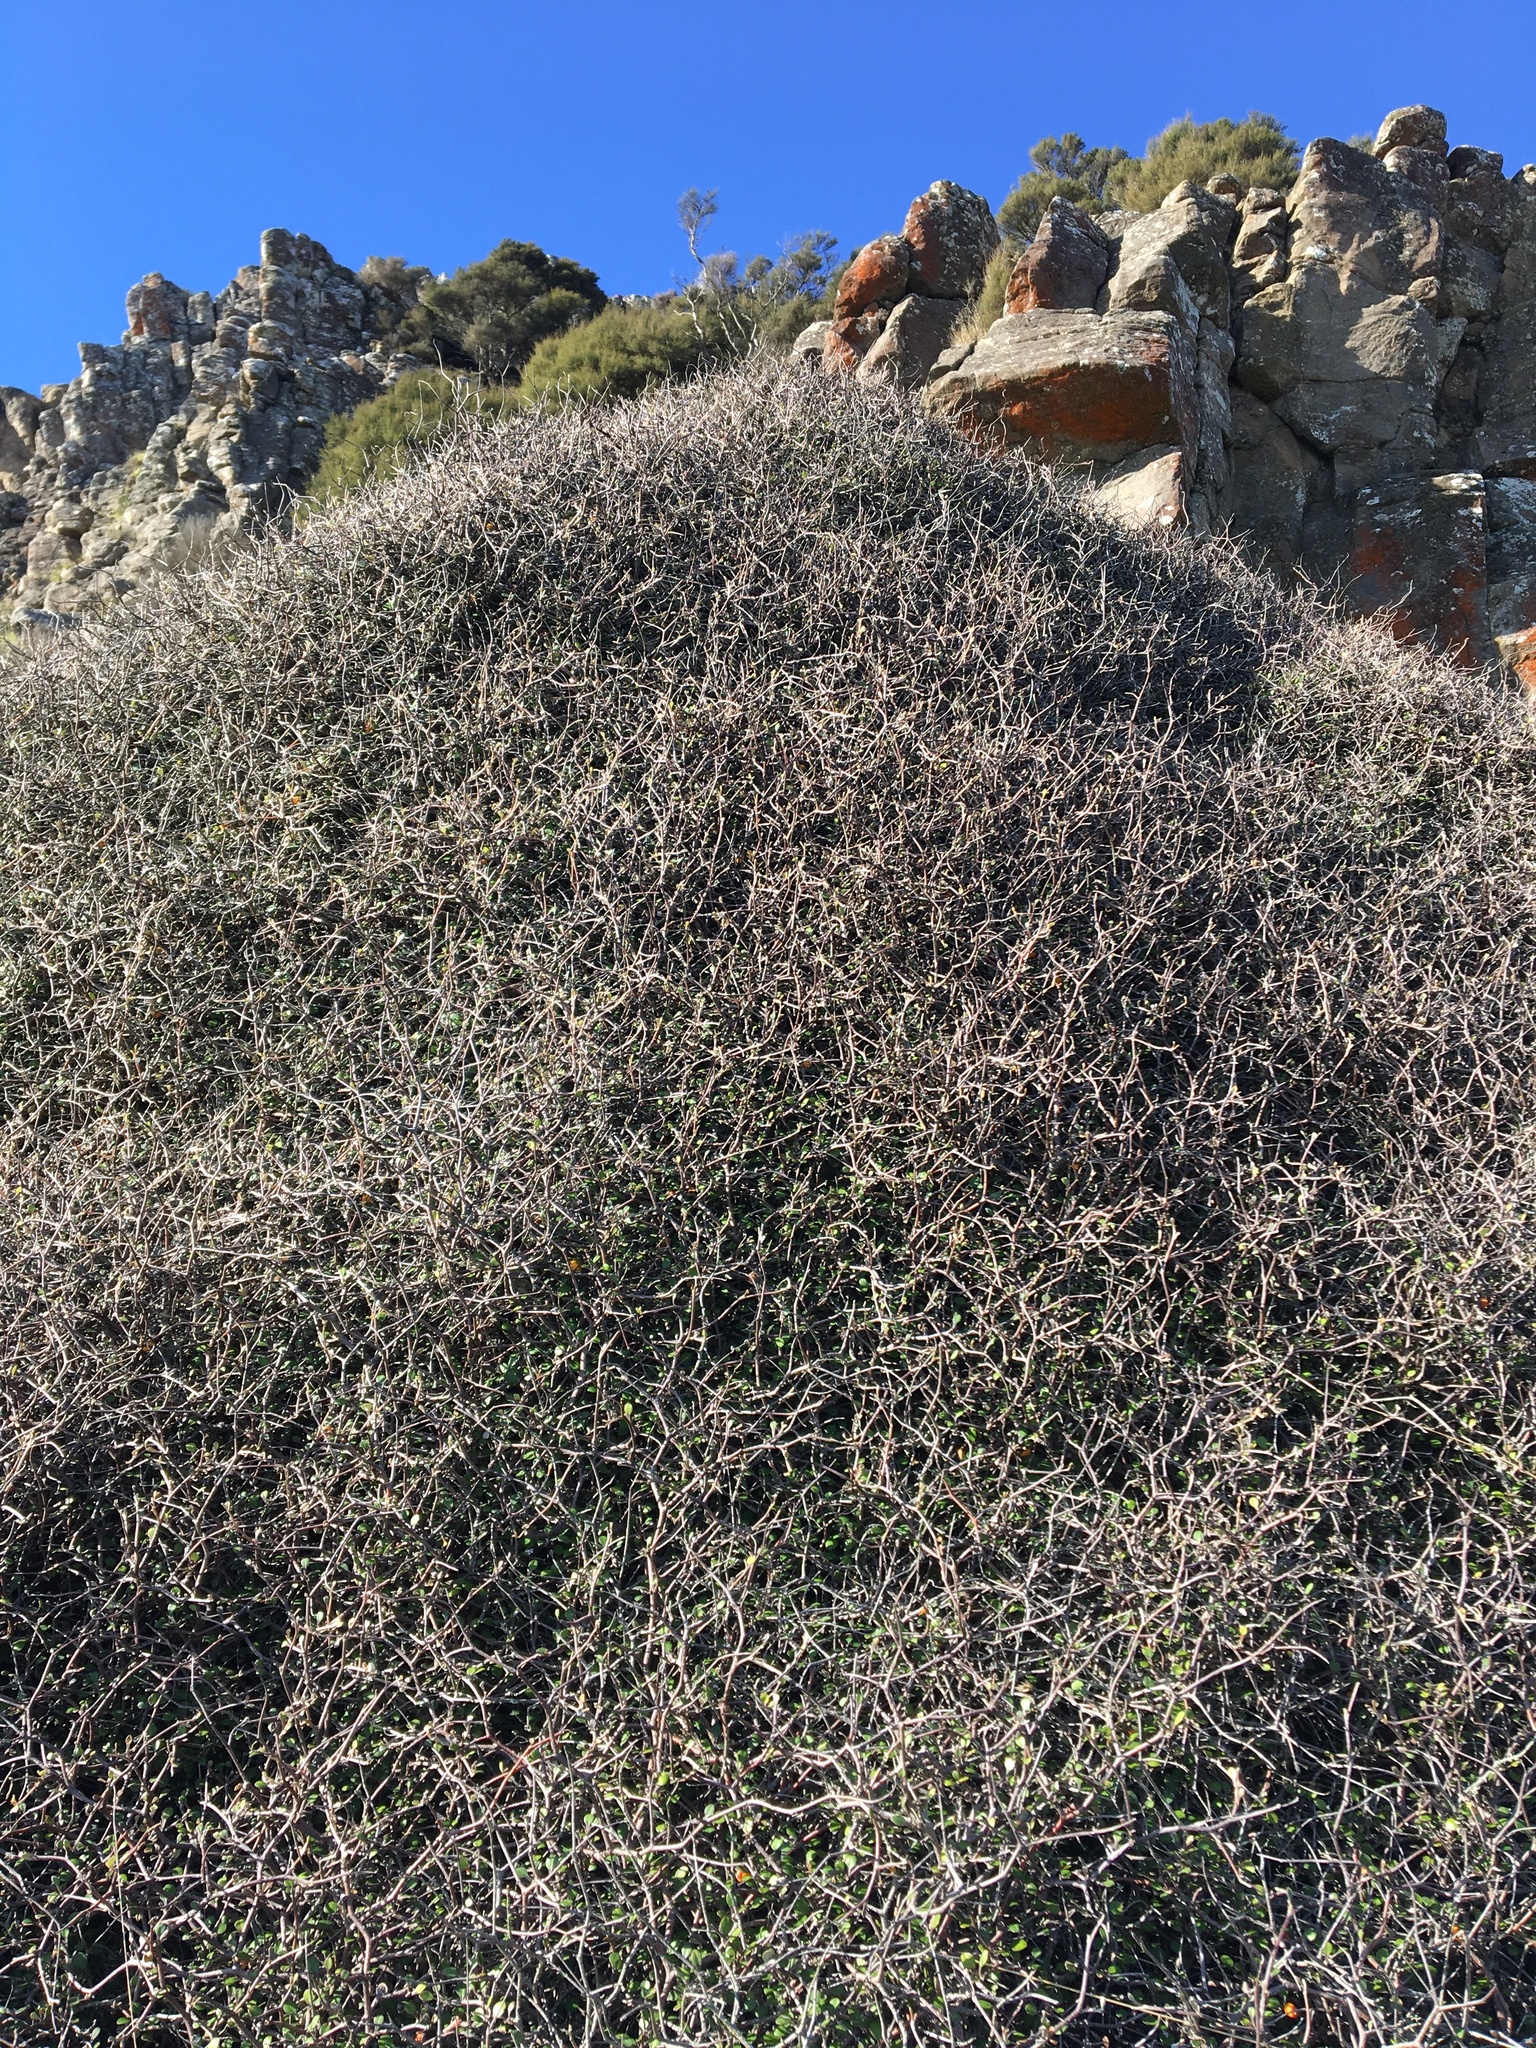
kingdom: Plantae
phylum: Tracheophyta
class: Magnoliopsida
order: Asterales
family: Argophyllaceae
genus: Corokia
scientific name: Corokia cotoneaster
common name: Wire nettingbush
